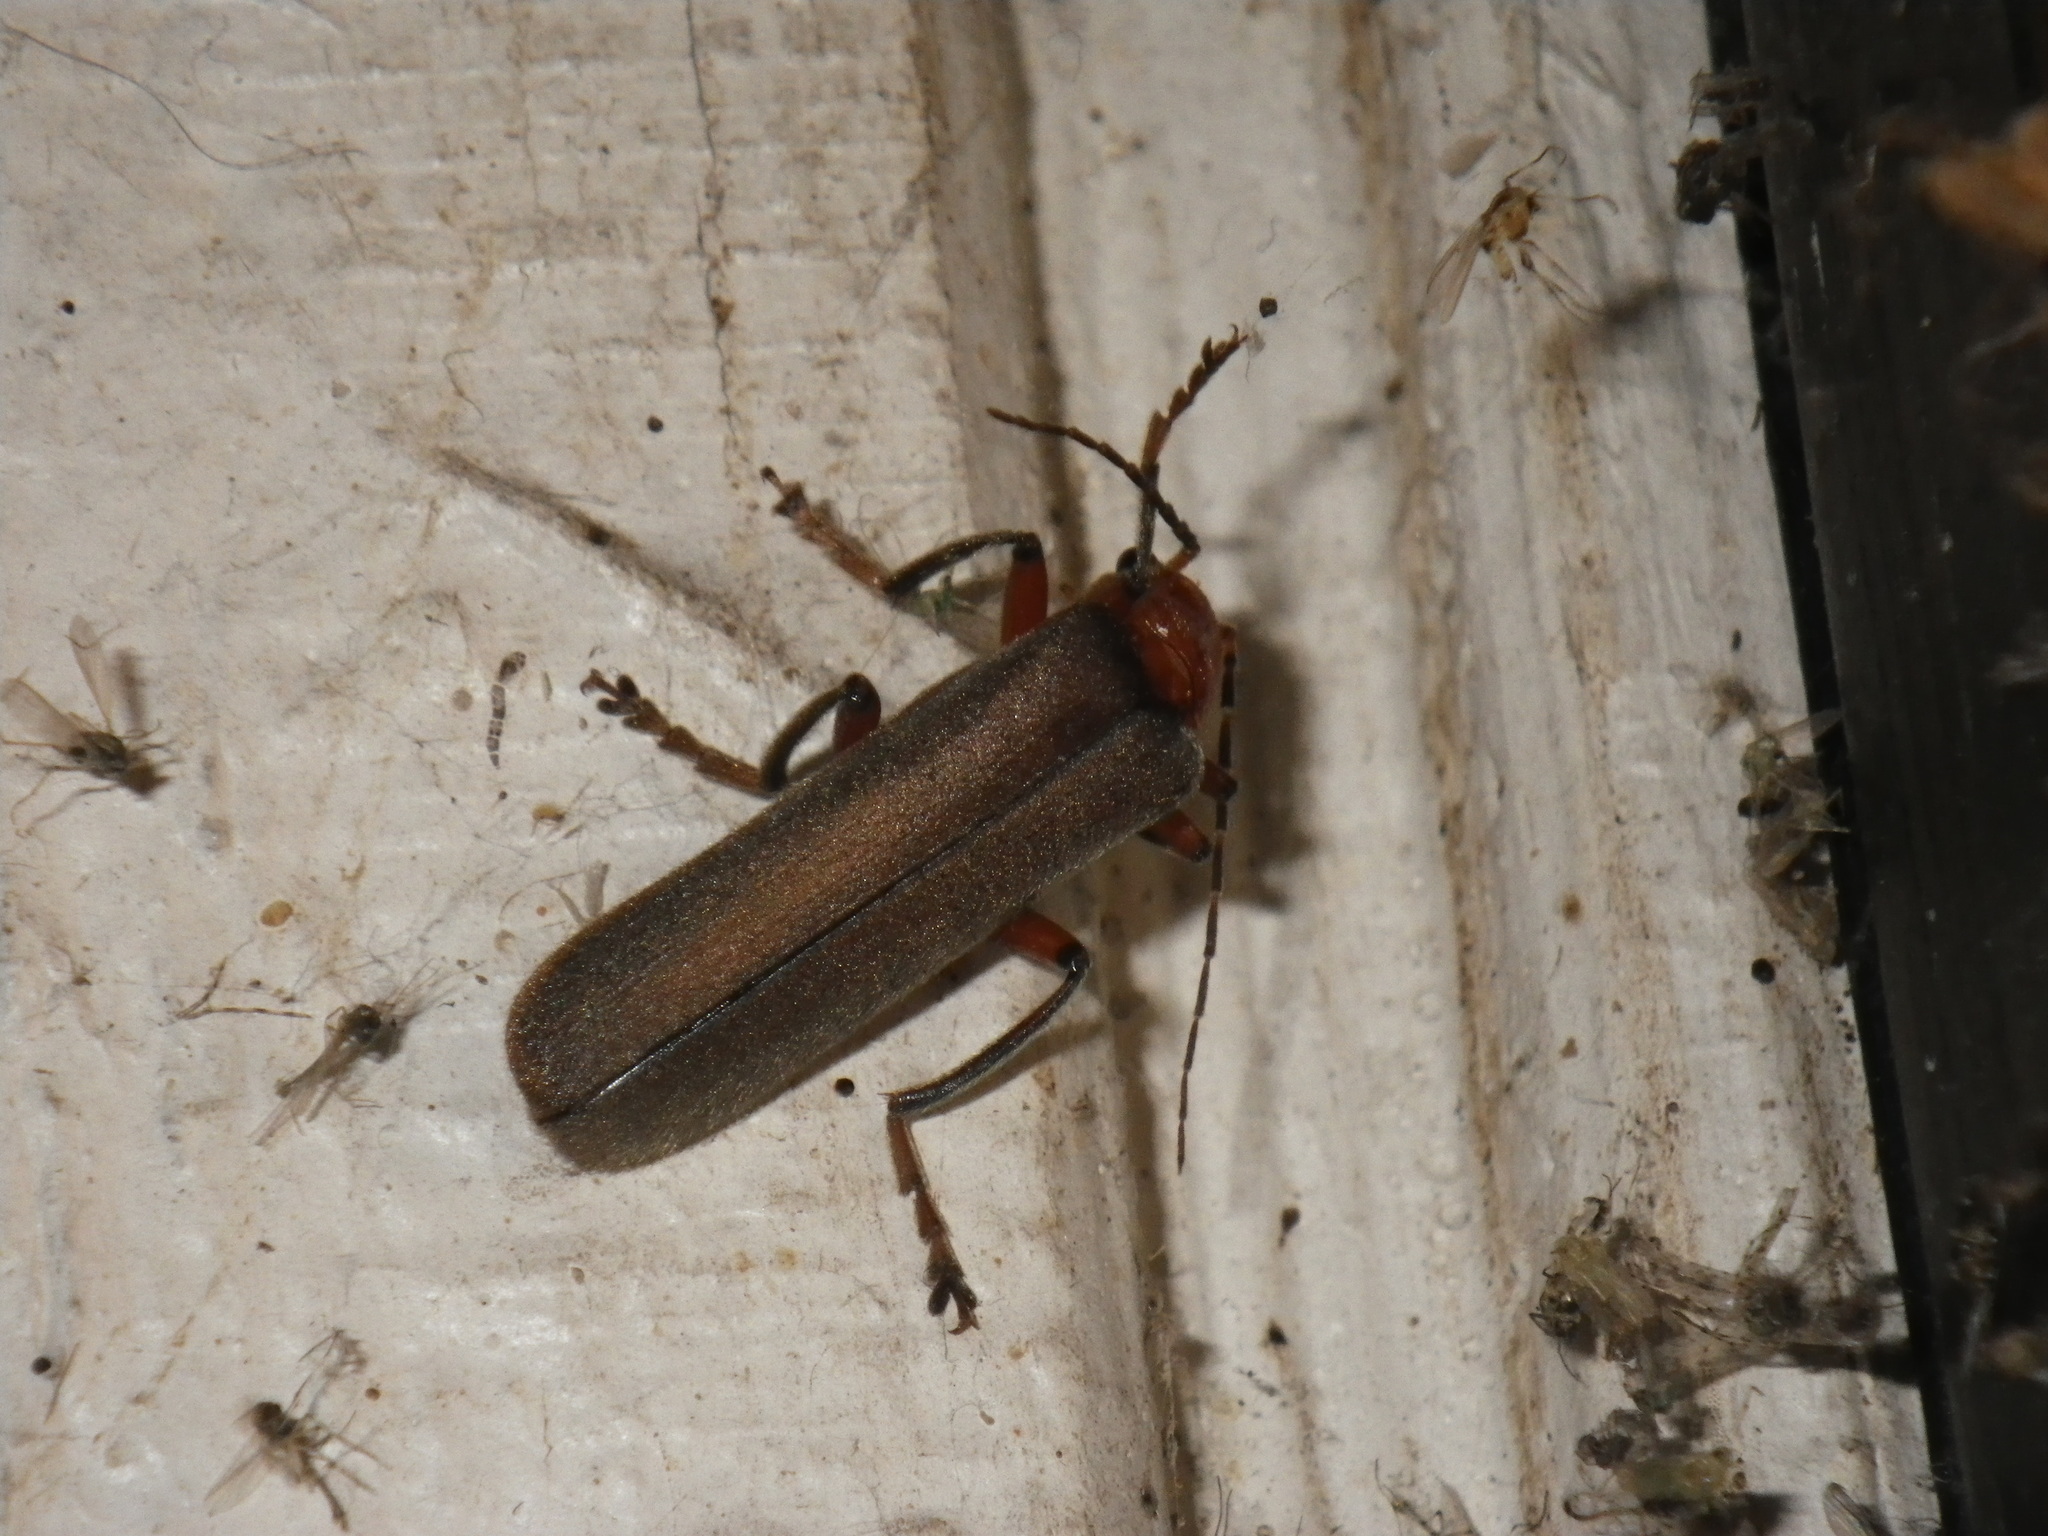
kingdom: Animalia
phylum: Arthropoda
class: Insecta
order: Coleoptera
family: Cantharidae
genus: Pacificanthia
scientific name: Pacificanthia consors
